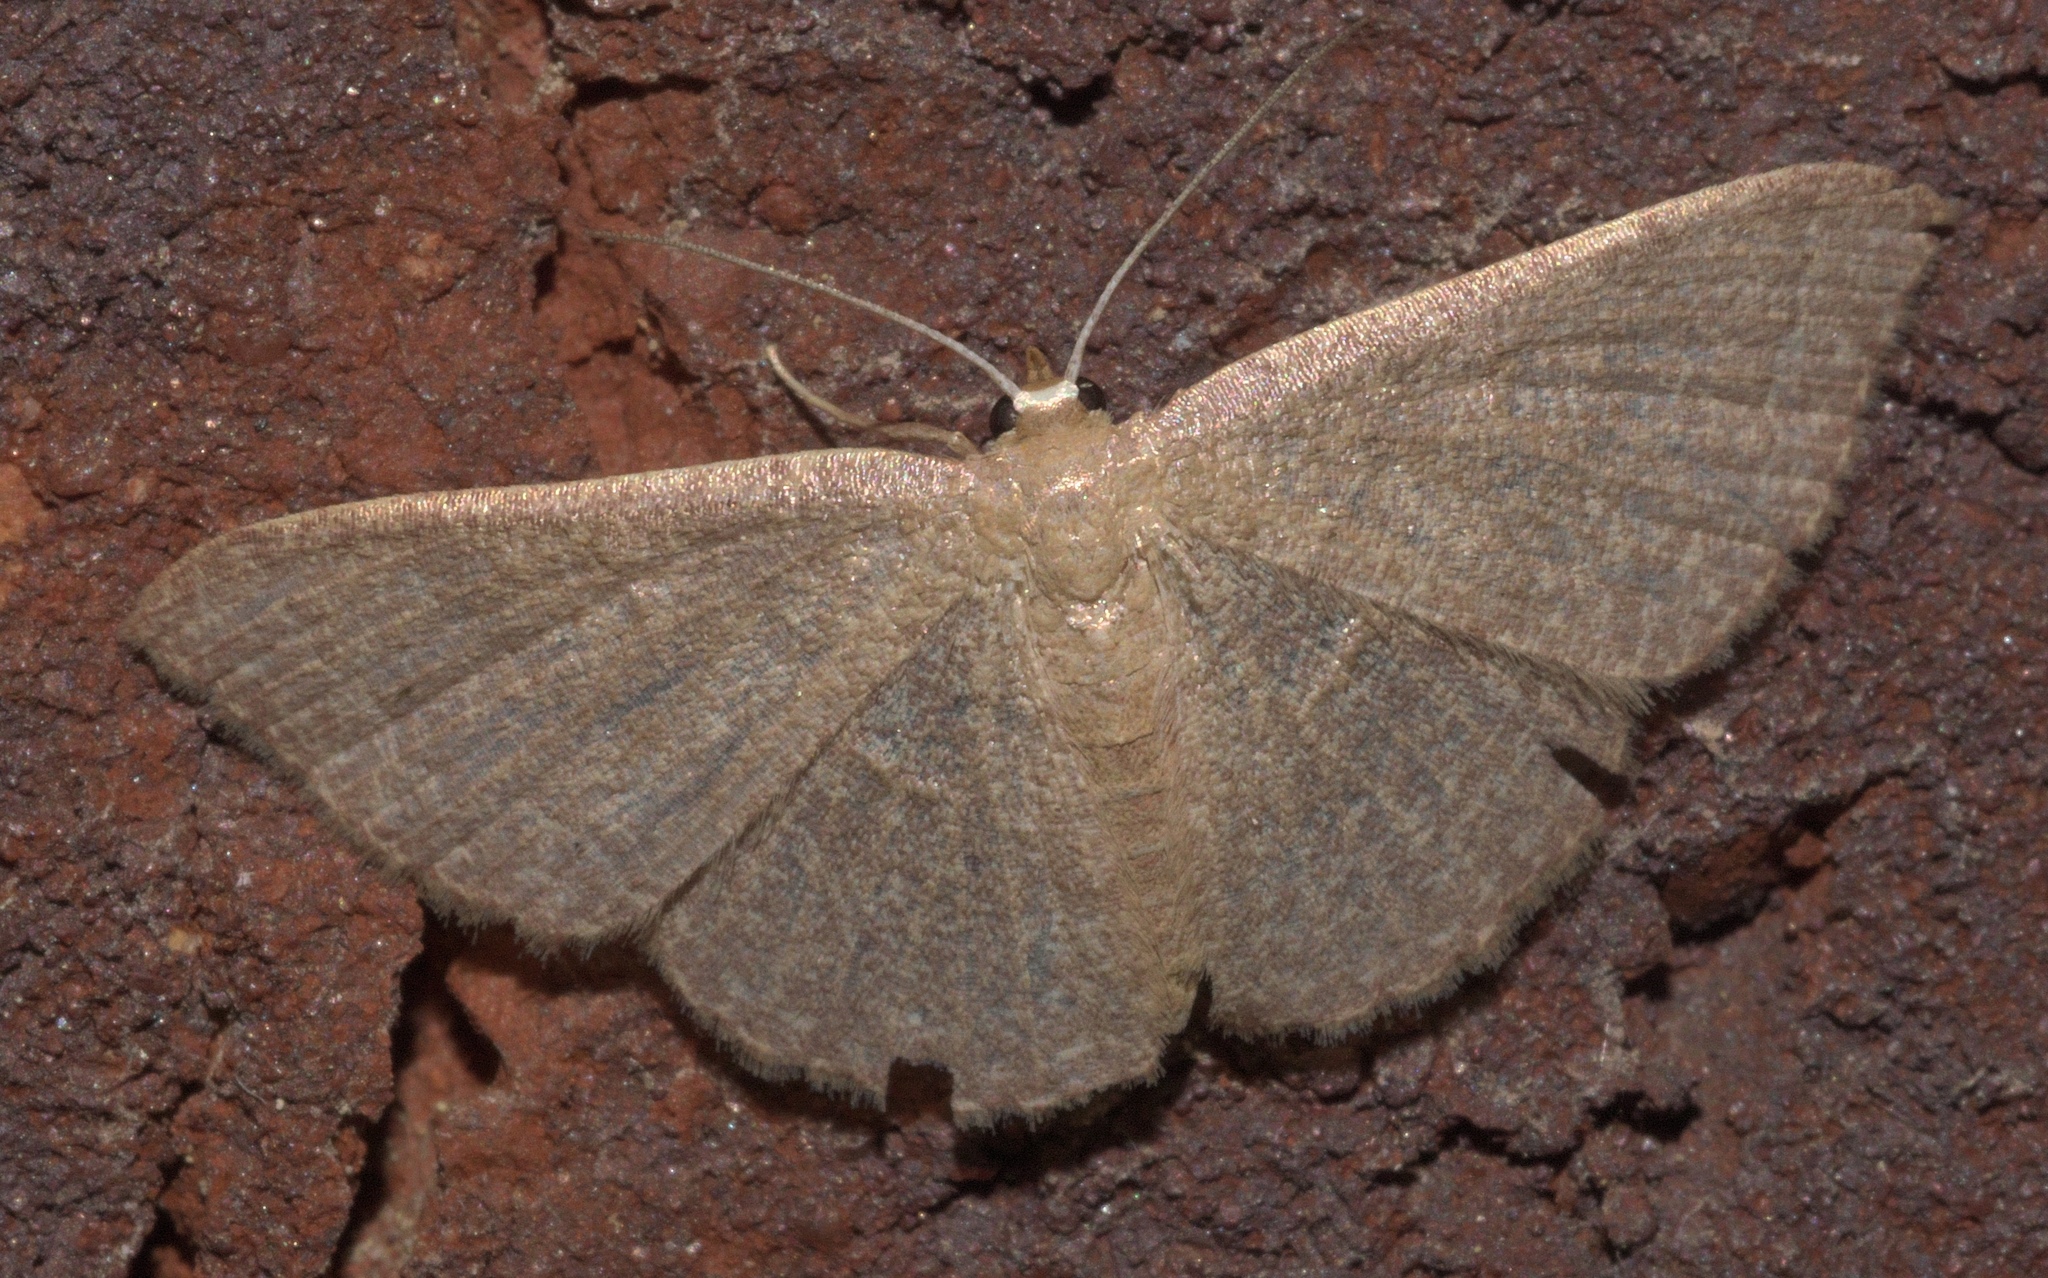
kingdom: Animalia
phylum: Arthropoda
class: Insecta
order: Lepidoptera
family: Geometridae
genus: Pleuroprucha
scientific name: Pleuroprucha insulsaria
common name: Common tan wave
